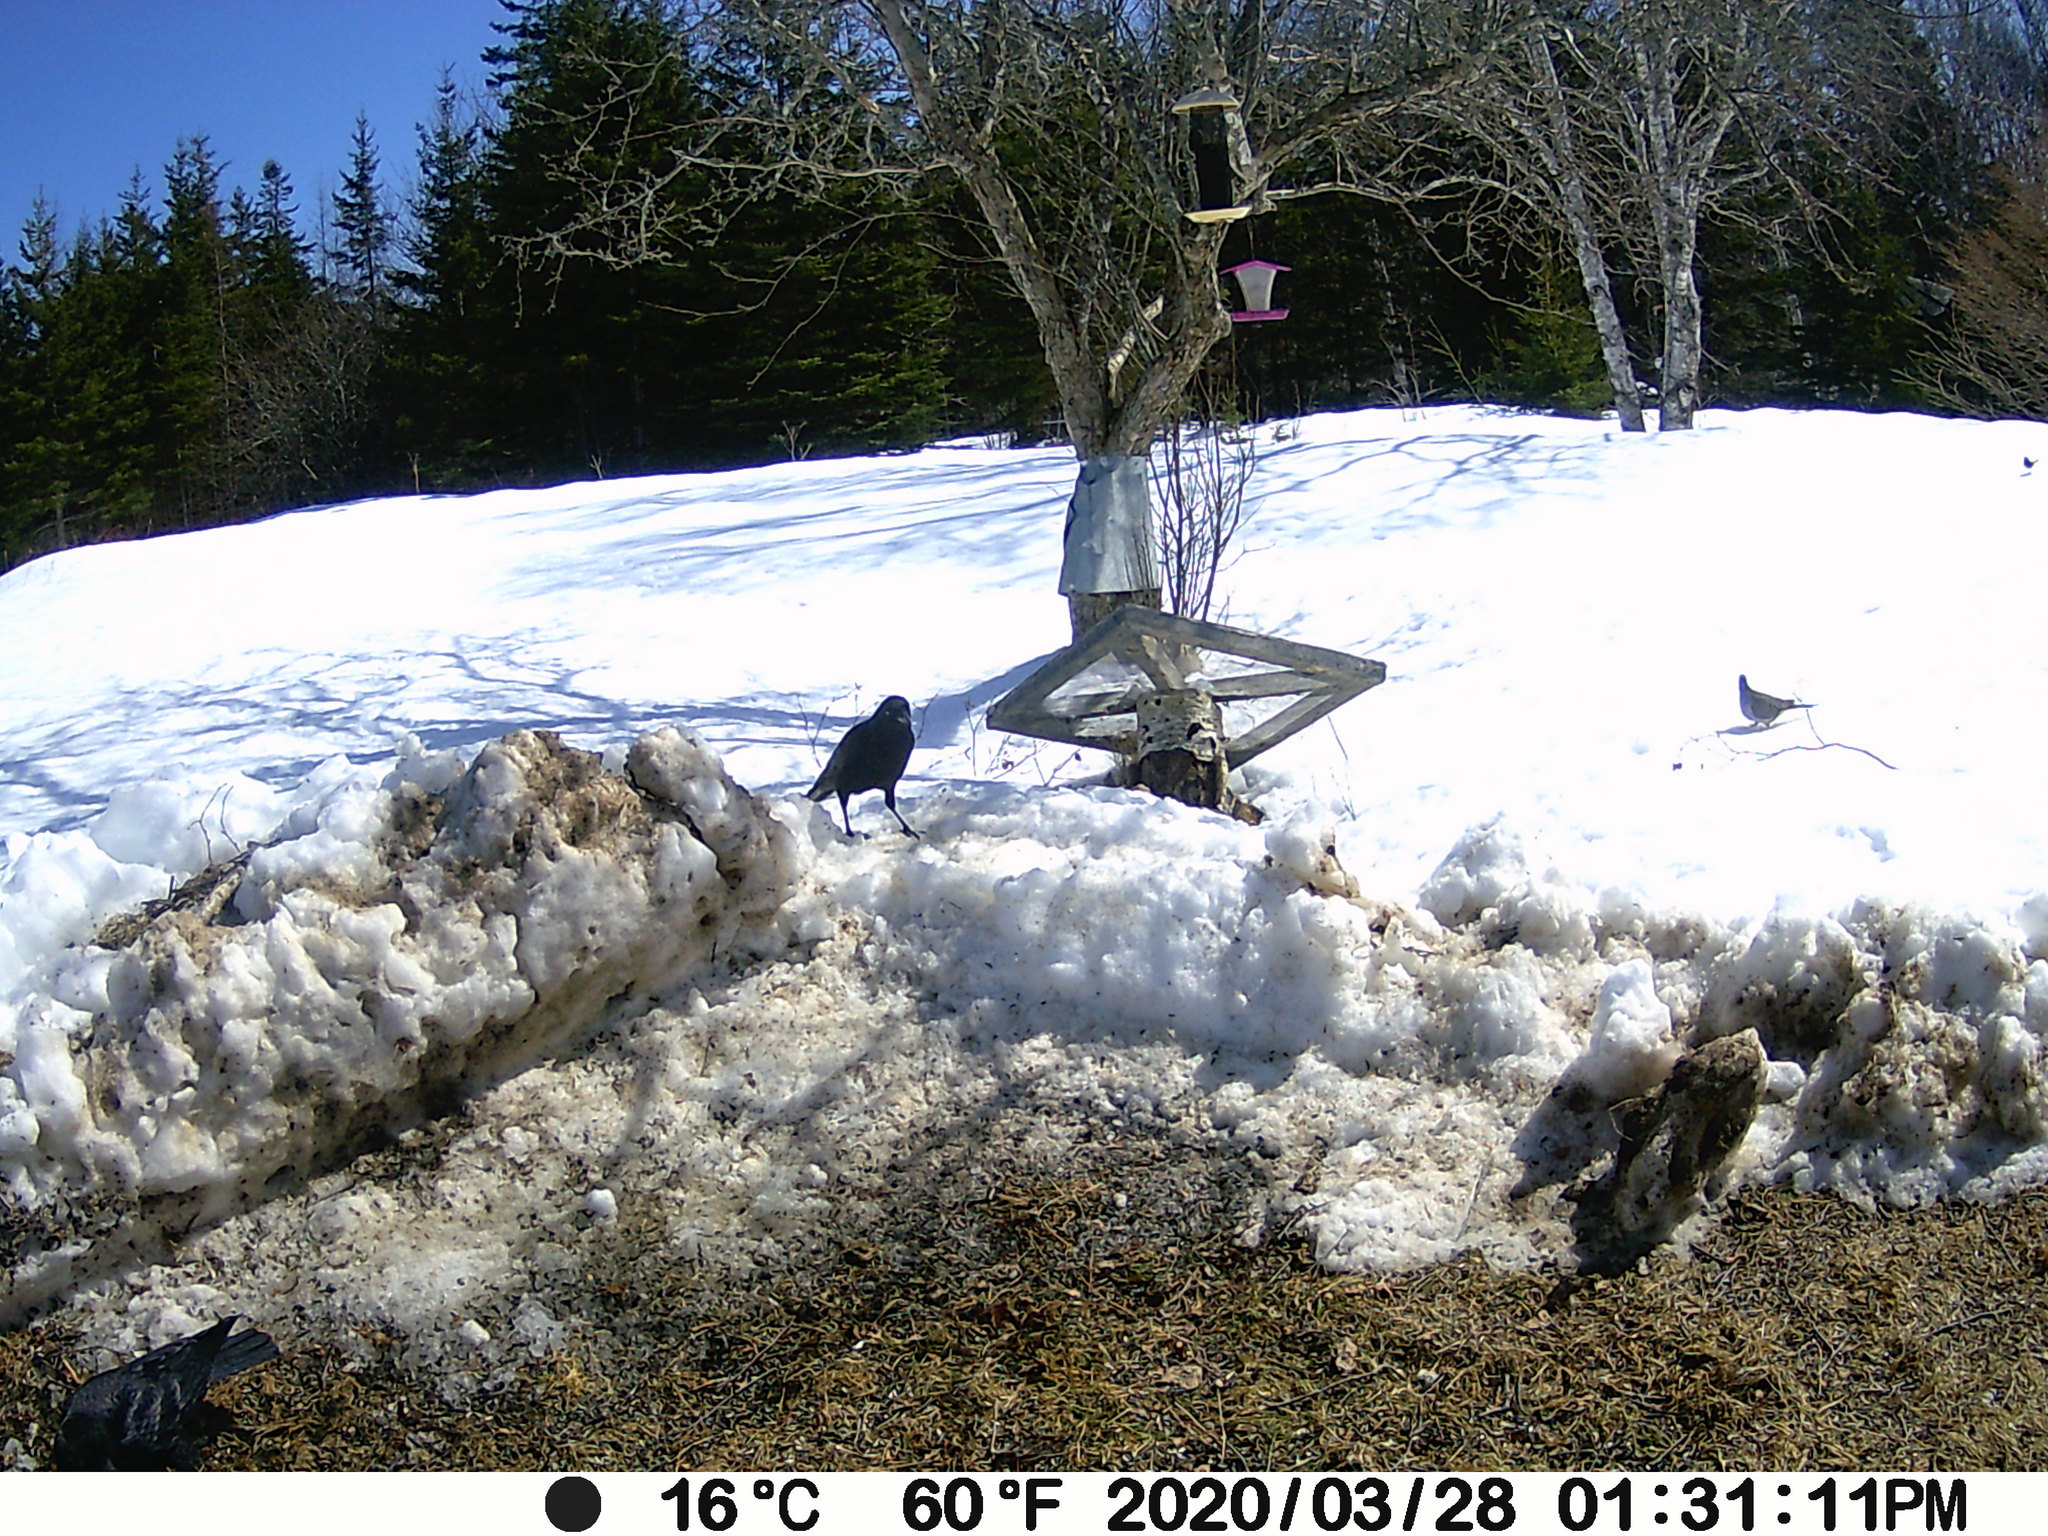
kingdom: Animalia
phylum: Chordata
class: Aves
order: Columbiformes
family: Columbidae
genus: Zenaida
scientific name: Zenaida macroura
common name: Mourning dove
